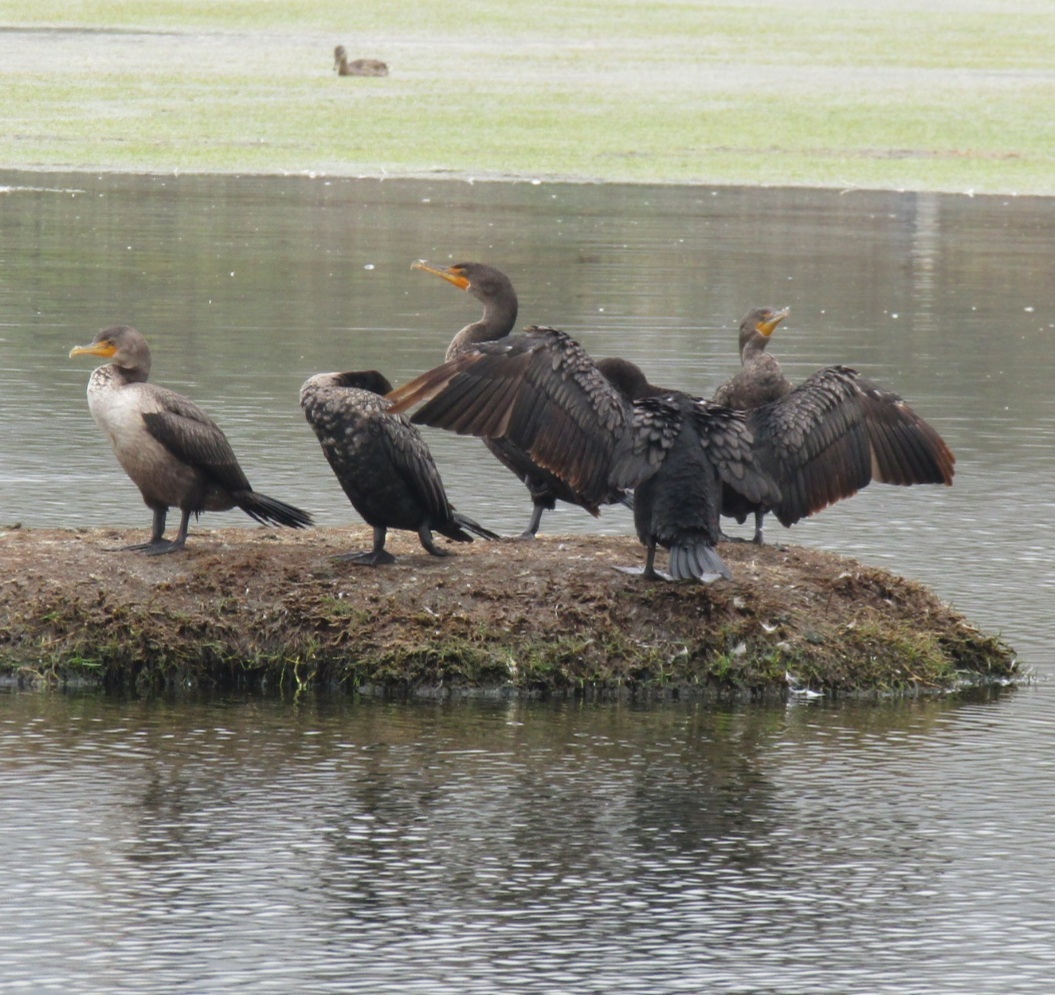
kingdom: Animalia
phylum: Chordata
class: Aves
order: Suliformes
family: Phalacrocoracidae
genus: Phalacrocorax
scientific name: Phalacrocorax auritus
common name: Double-crested cormorant
